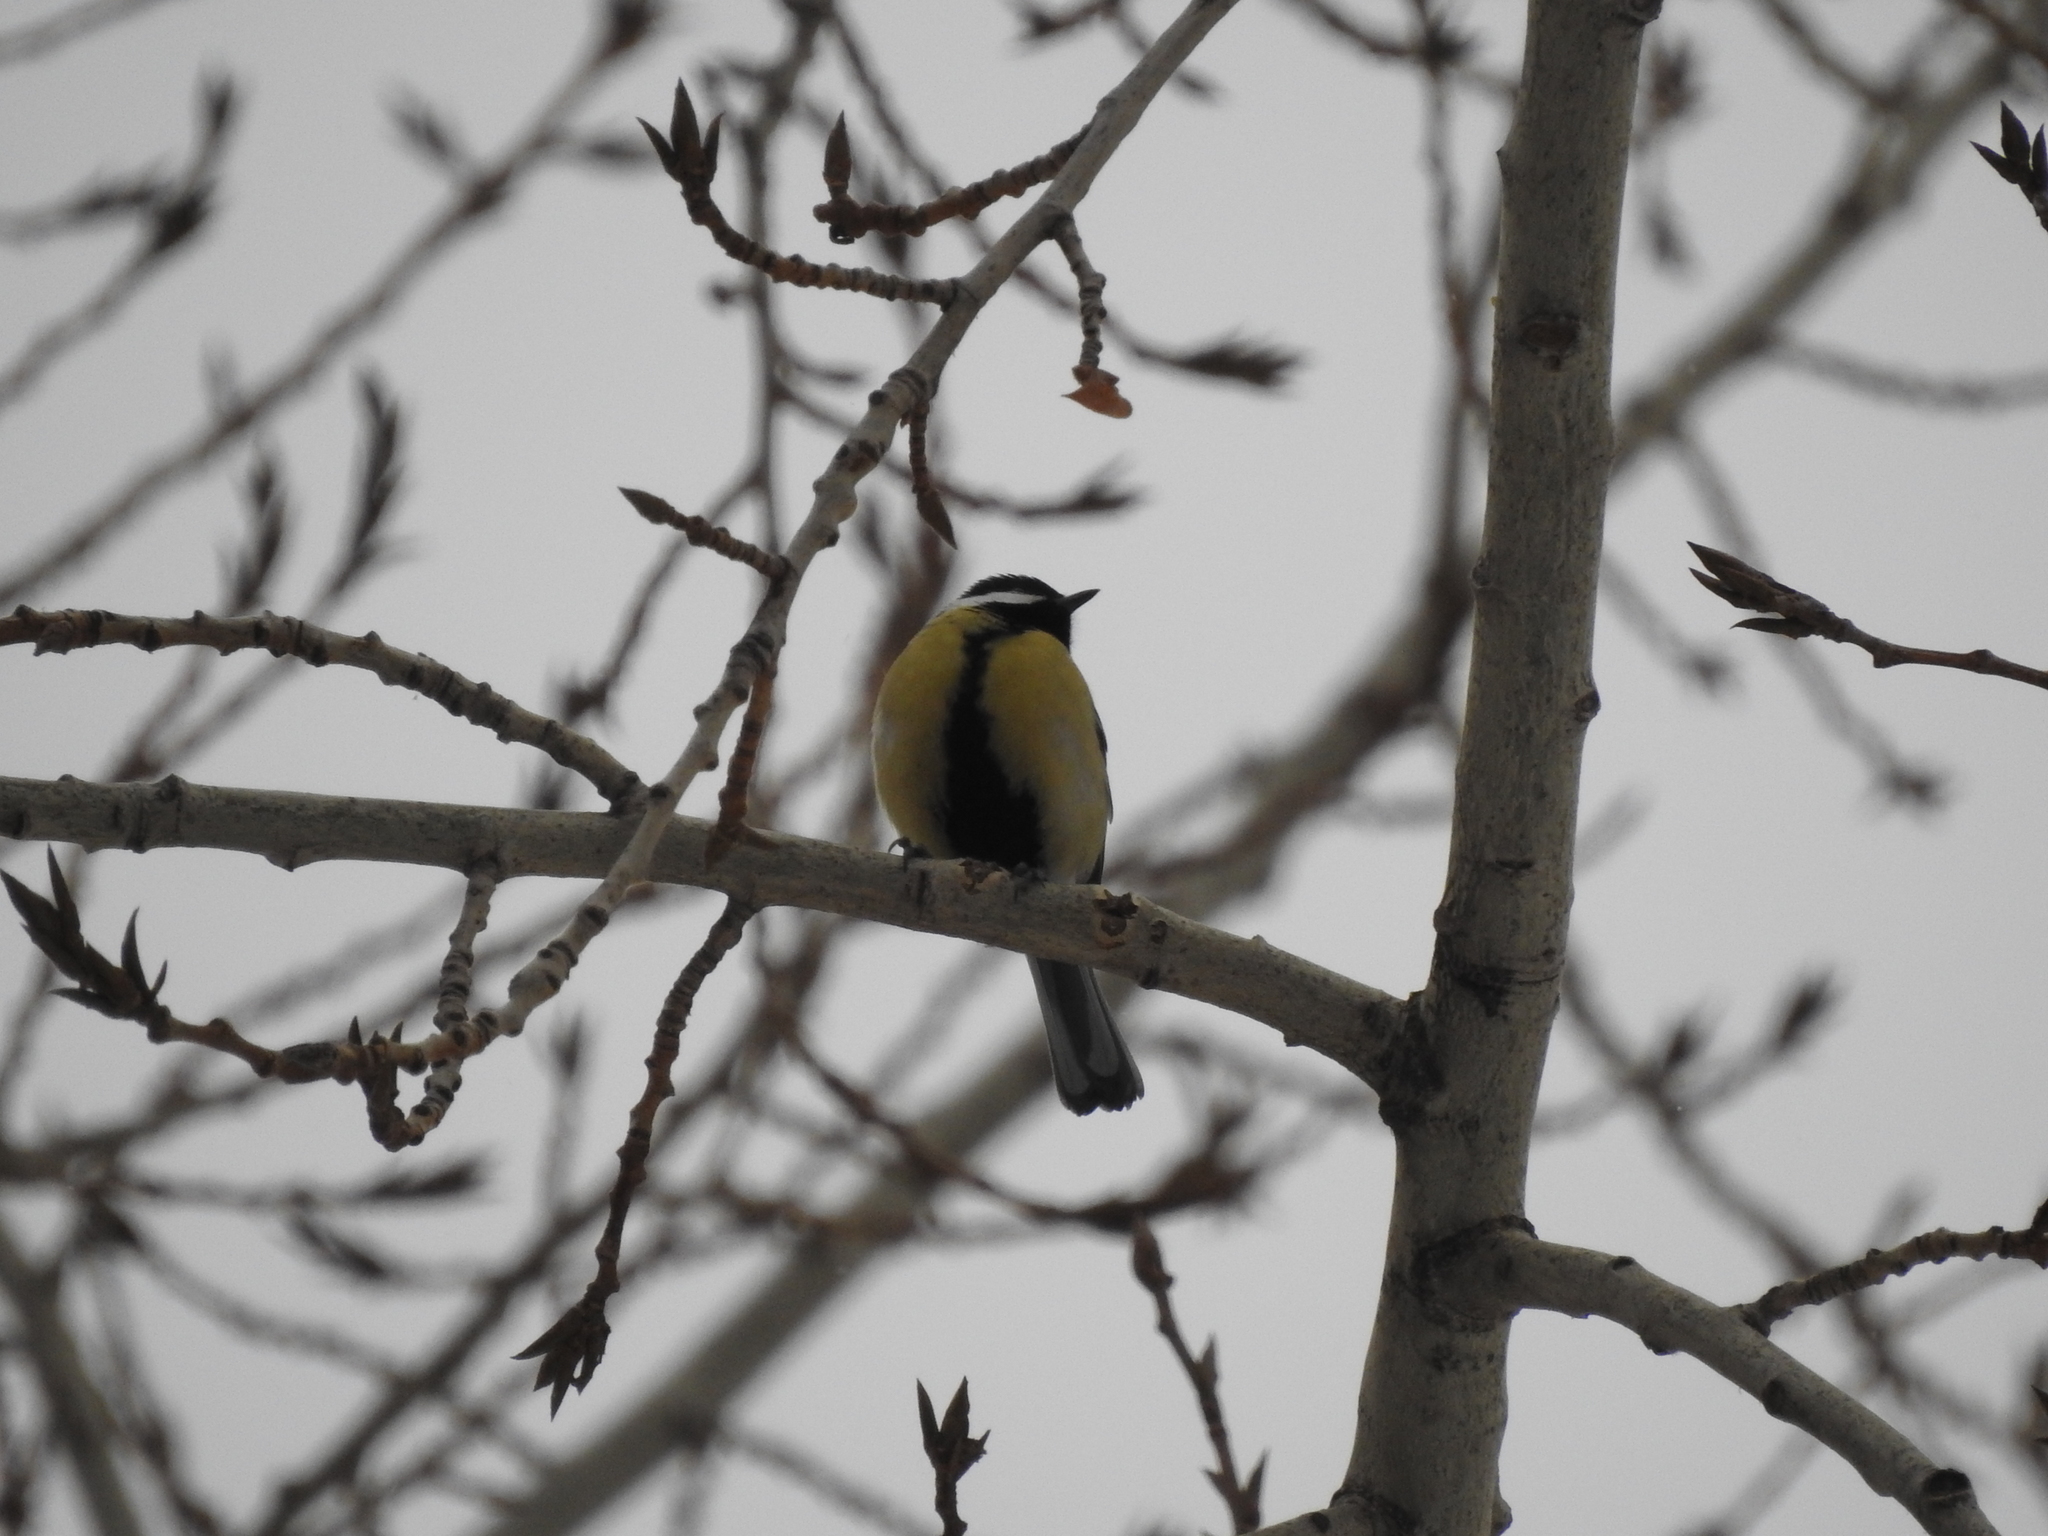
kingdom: Animalia
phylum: Chordata
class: Aves
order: Passeriformes
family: Paridae
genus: Parus
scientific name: Parus major
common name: Great tit
